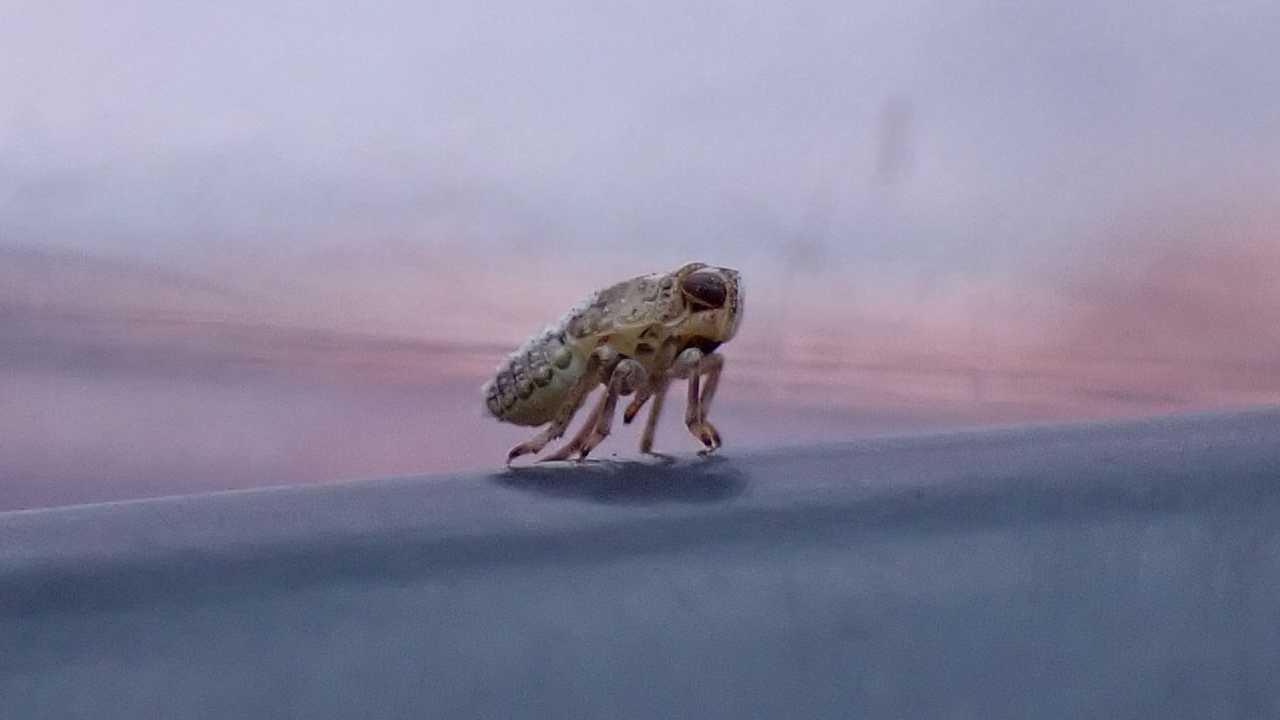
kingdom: Animalia
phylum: Arthropoda
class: Insecta
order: Hemiptera
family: Issidae
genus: Issus
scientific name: Issus
